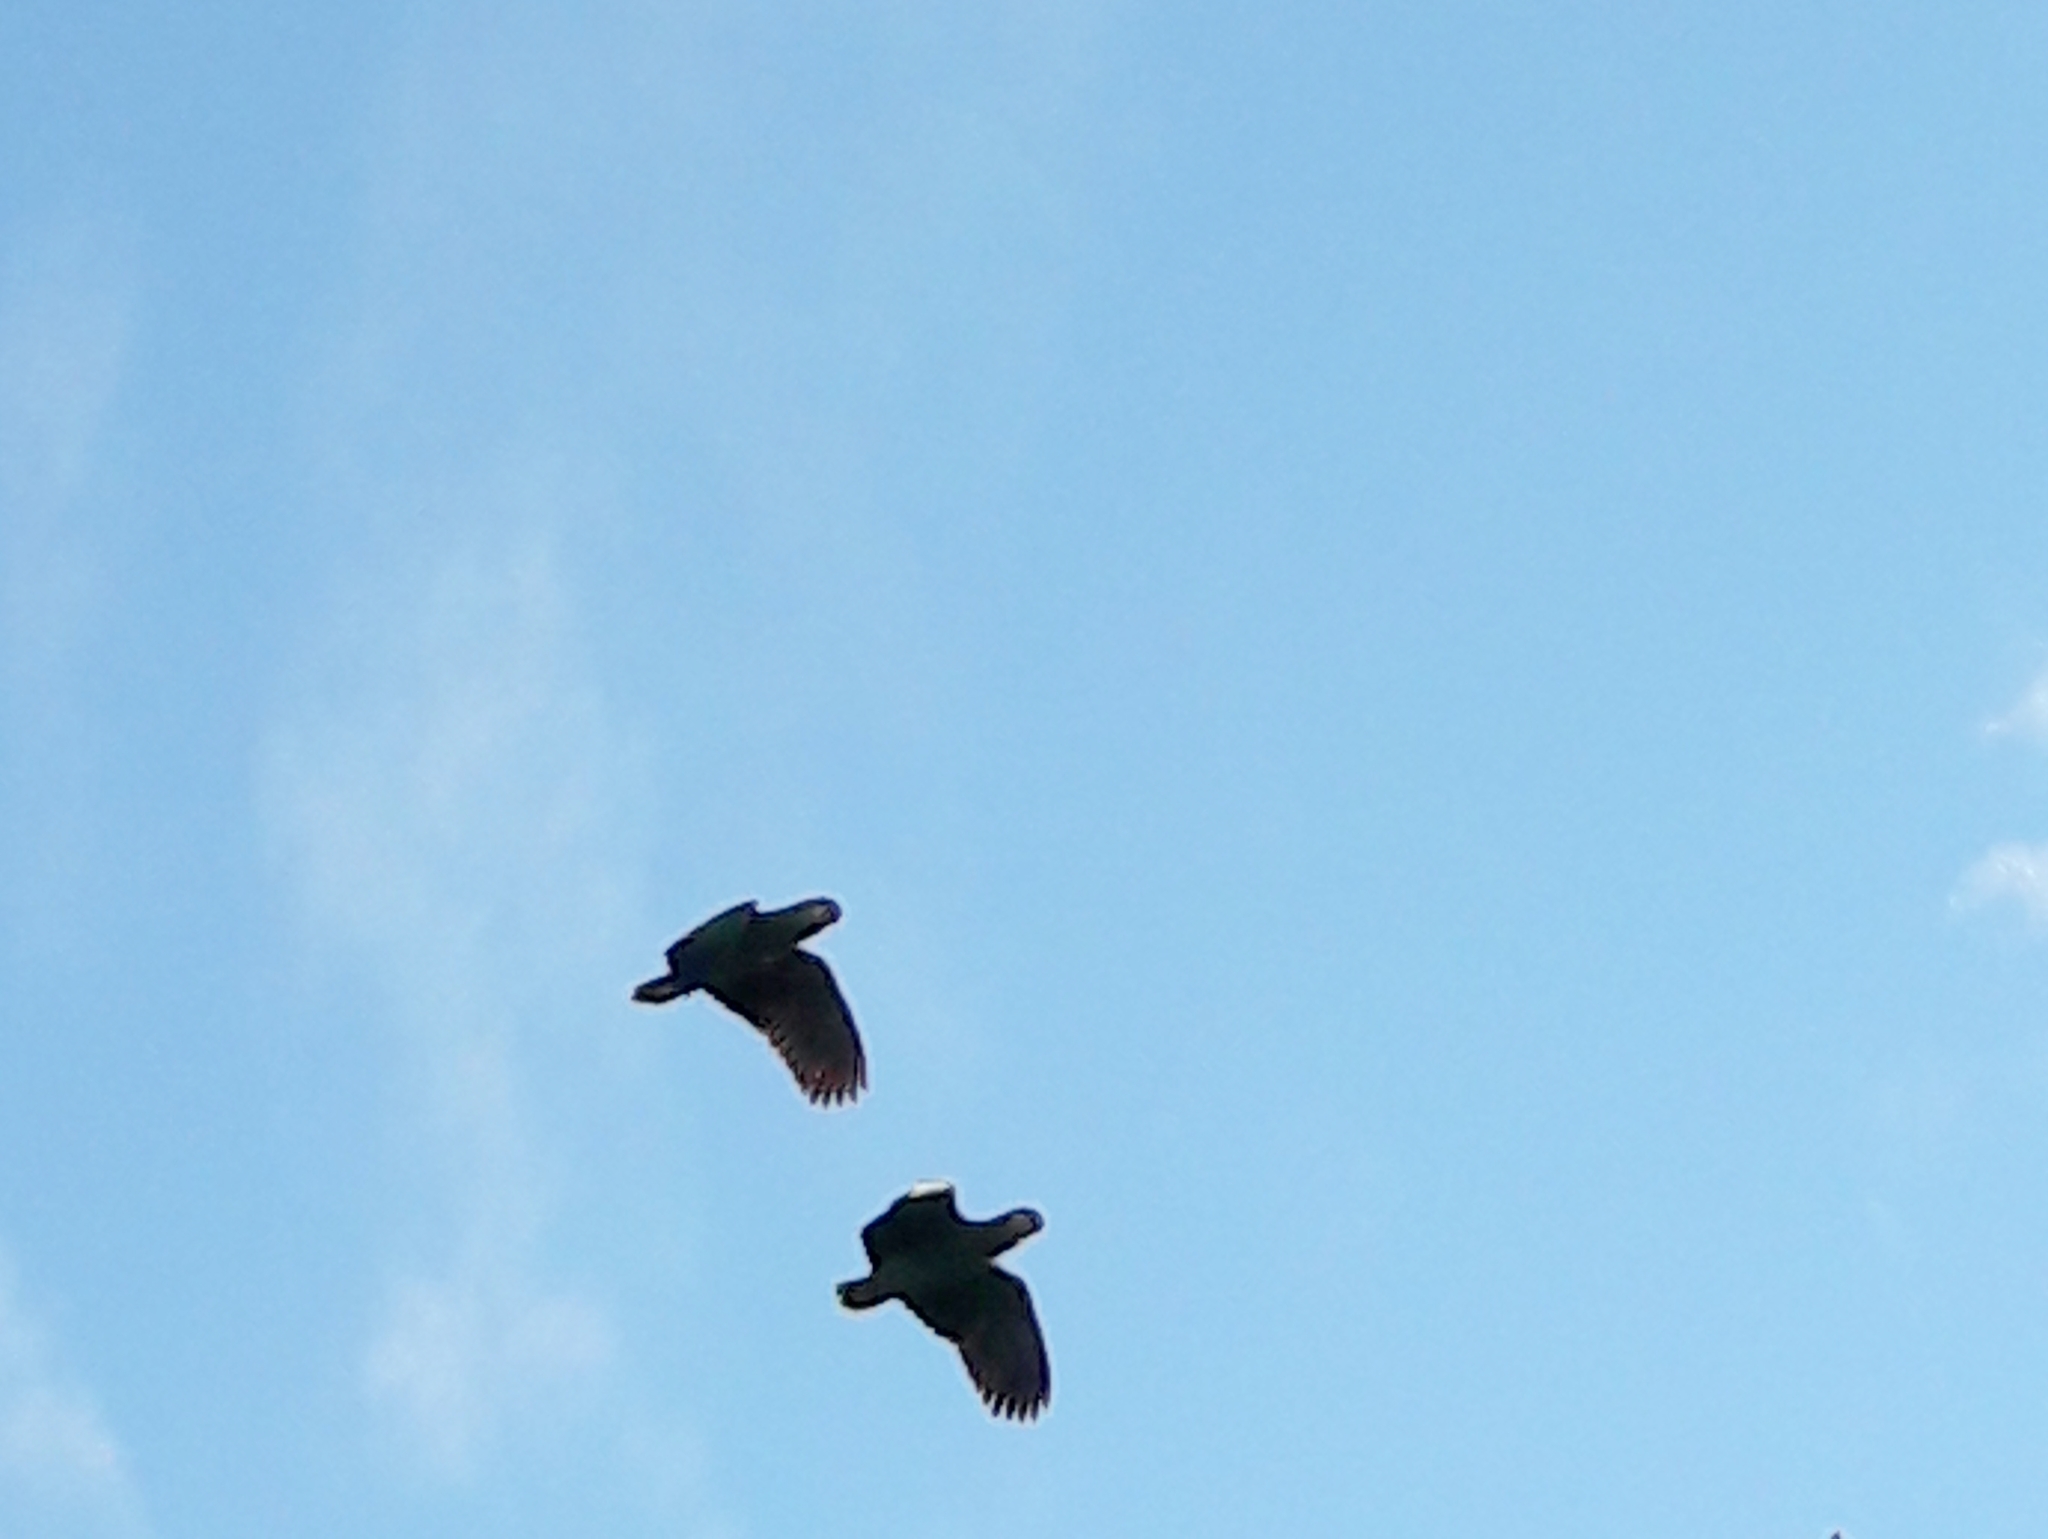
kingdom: Animalia
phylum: Chordata
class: Aves
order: Psittaciformes
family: Psittacidae
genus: Amazona
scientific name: Amazona aestiva
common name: Turquoise-fronted amazon
